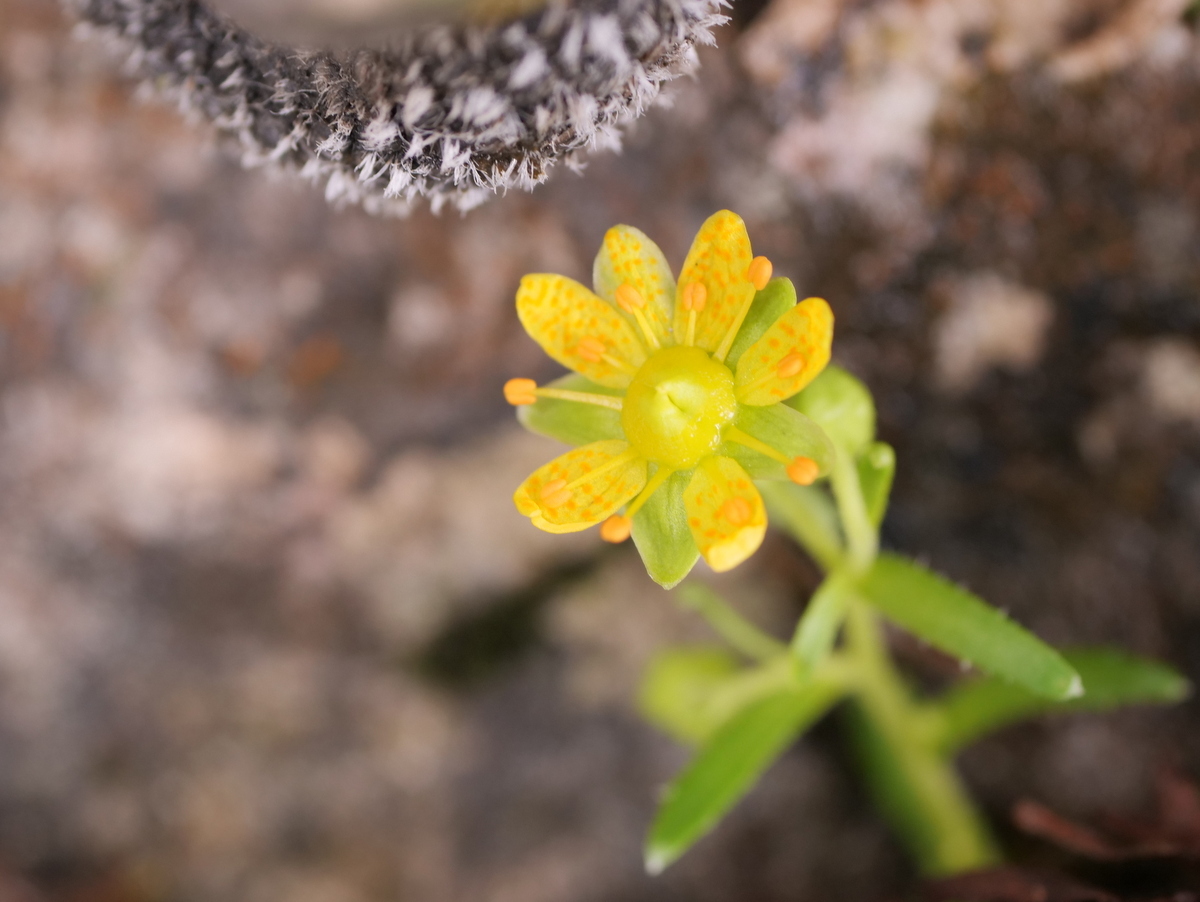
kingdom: Plantae
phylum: Tracheophyta
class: Magnoliopsida
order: Saxifragales
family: Saxifragaceae
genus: Saxifraga
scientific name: Saxifraga aizoides
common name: Yellow mountain saxifrage
